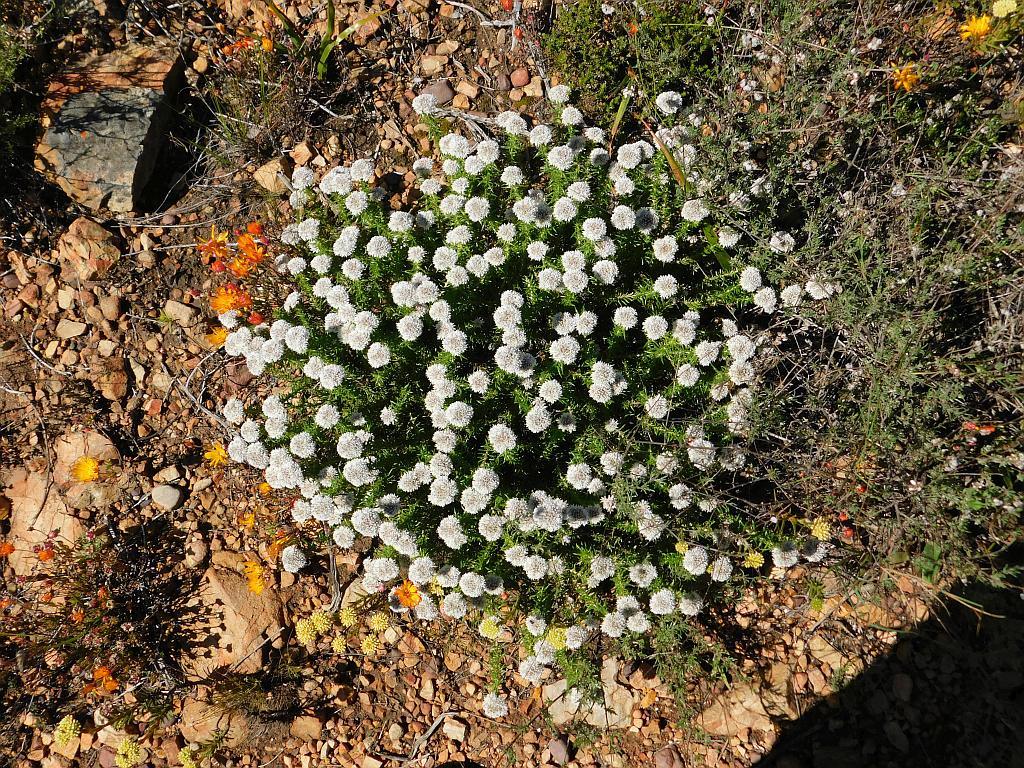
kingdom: Plantae
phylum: Tracheophyta
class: Magnoliopsida
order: Asterales
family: Asteraceae
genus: Metalasia
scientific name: Metalasia inversa
